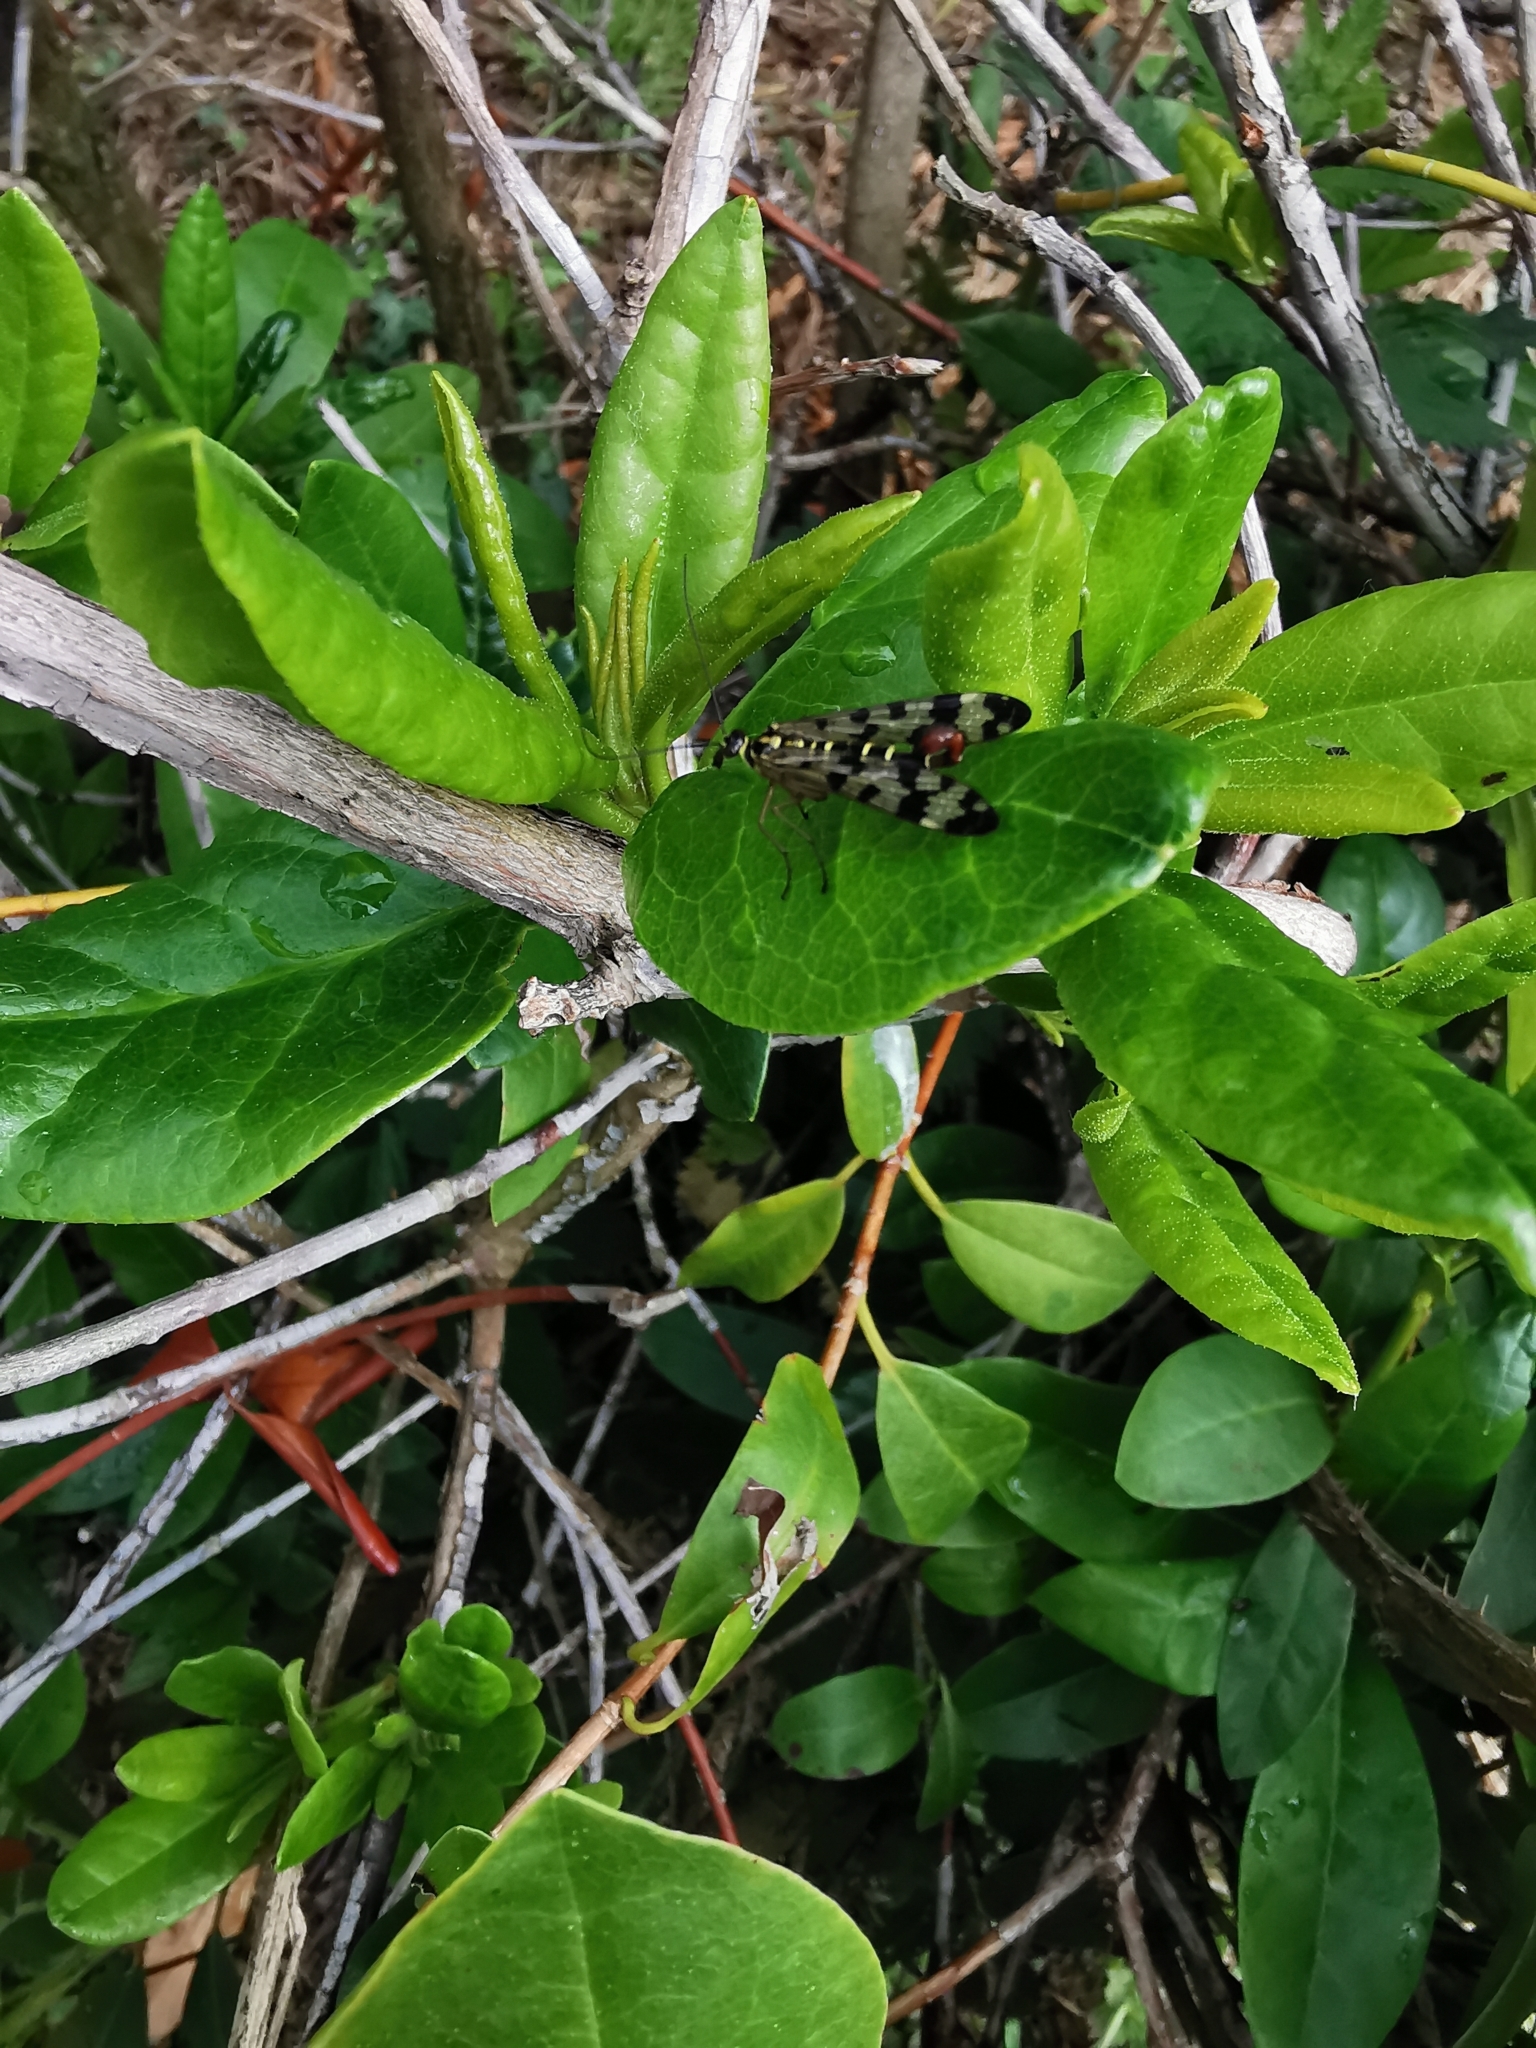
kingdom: Animalia
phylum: Arthropoda
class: Insecta
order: Mecoptera
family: Panorpidae
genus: Panorpa
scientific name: Panorpa communis
